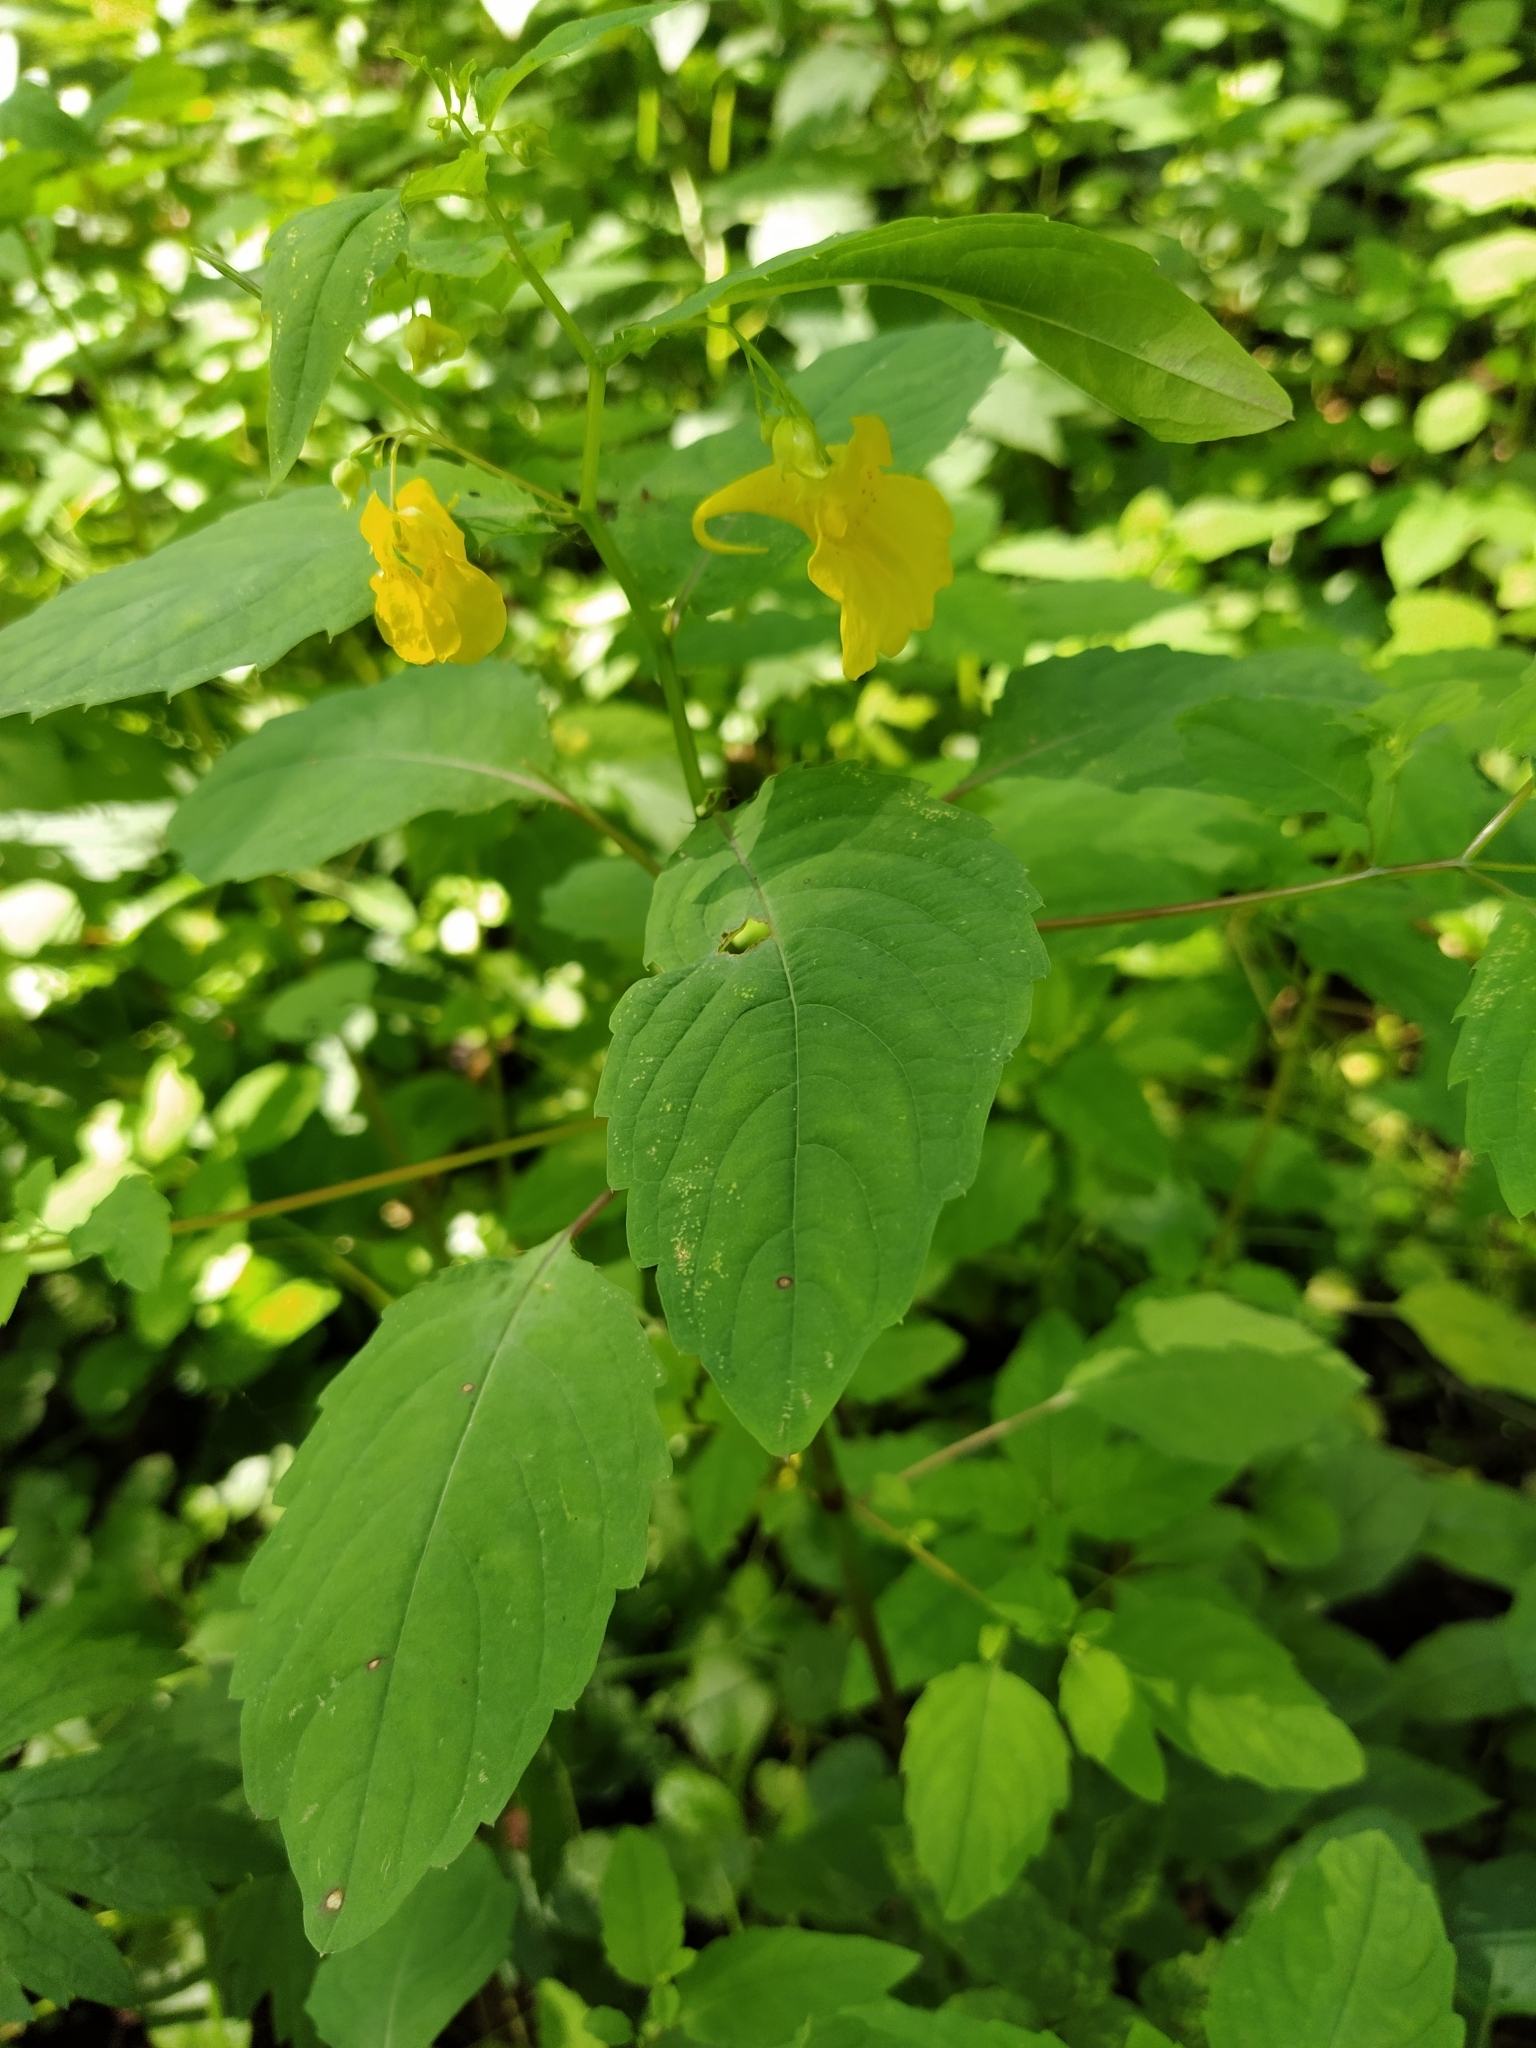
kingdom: Plantae
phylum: Tracheophyta
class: Magnoliopsida
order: Ericales
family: Balsaminaceae
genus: Impatiens
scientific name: Impatiens noli-tangere
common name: Touch-me-not balsam
